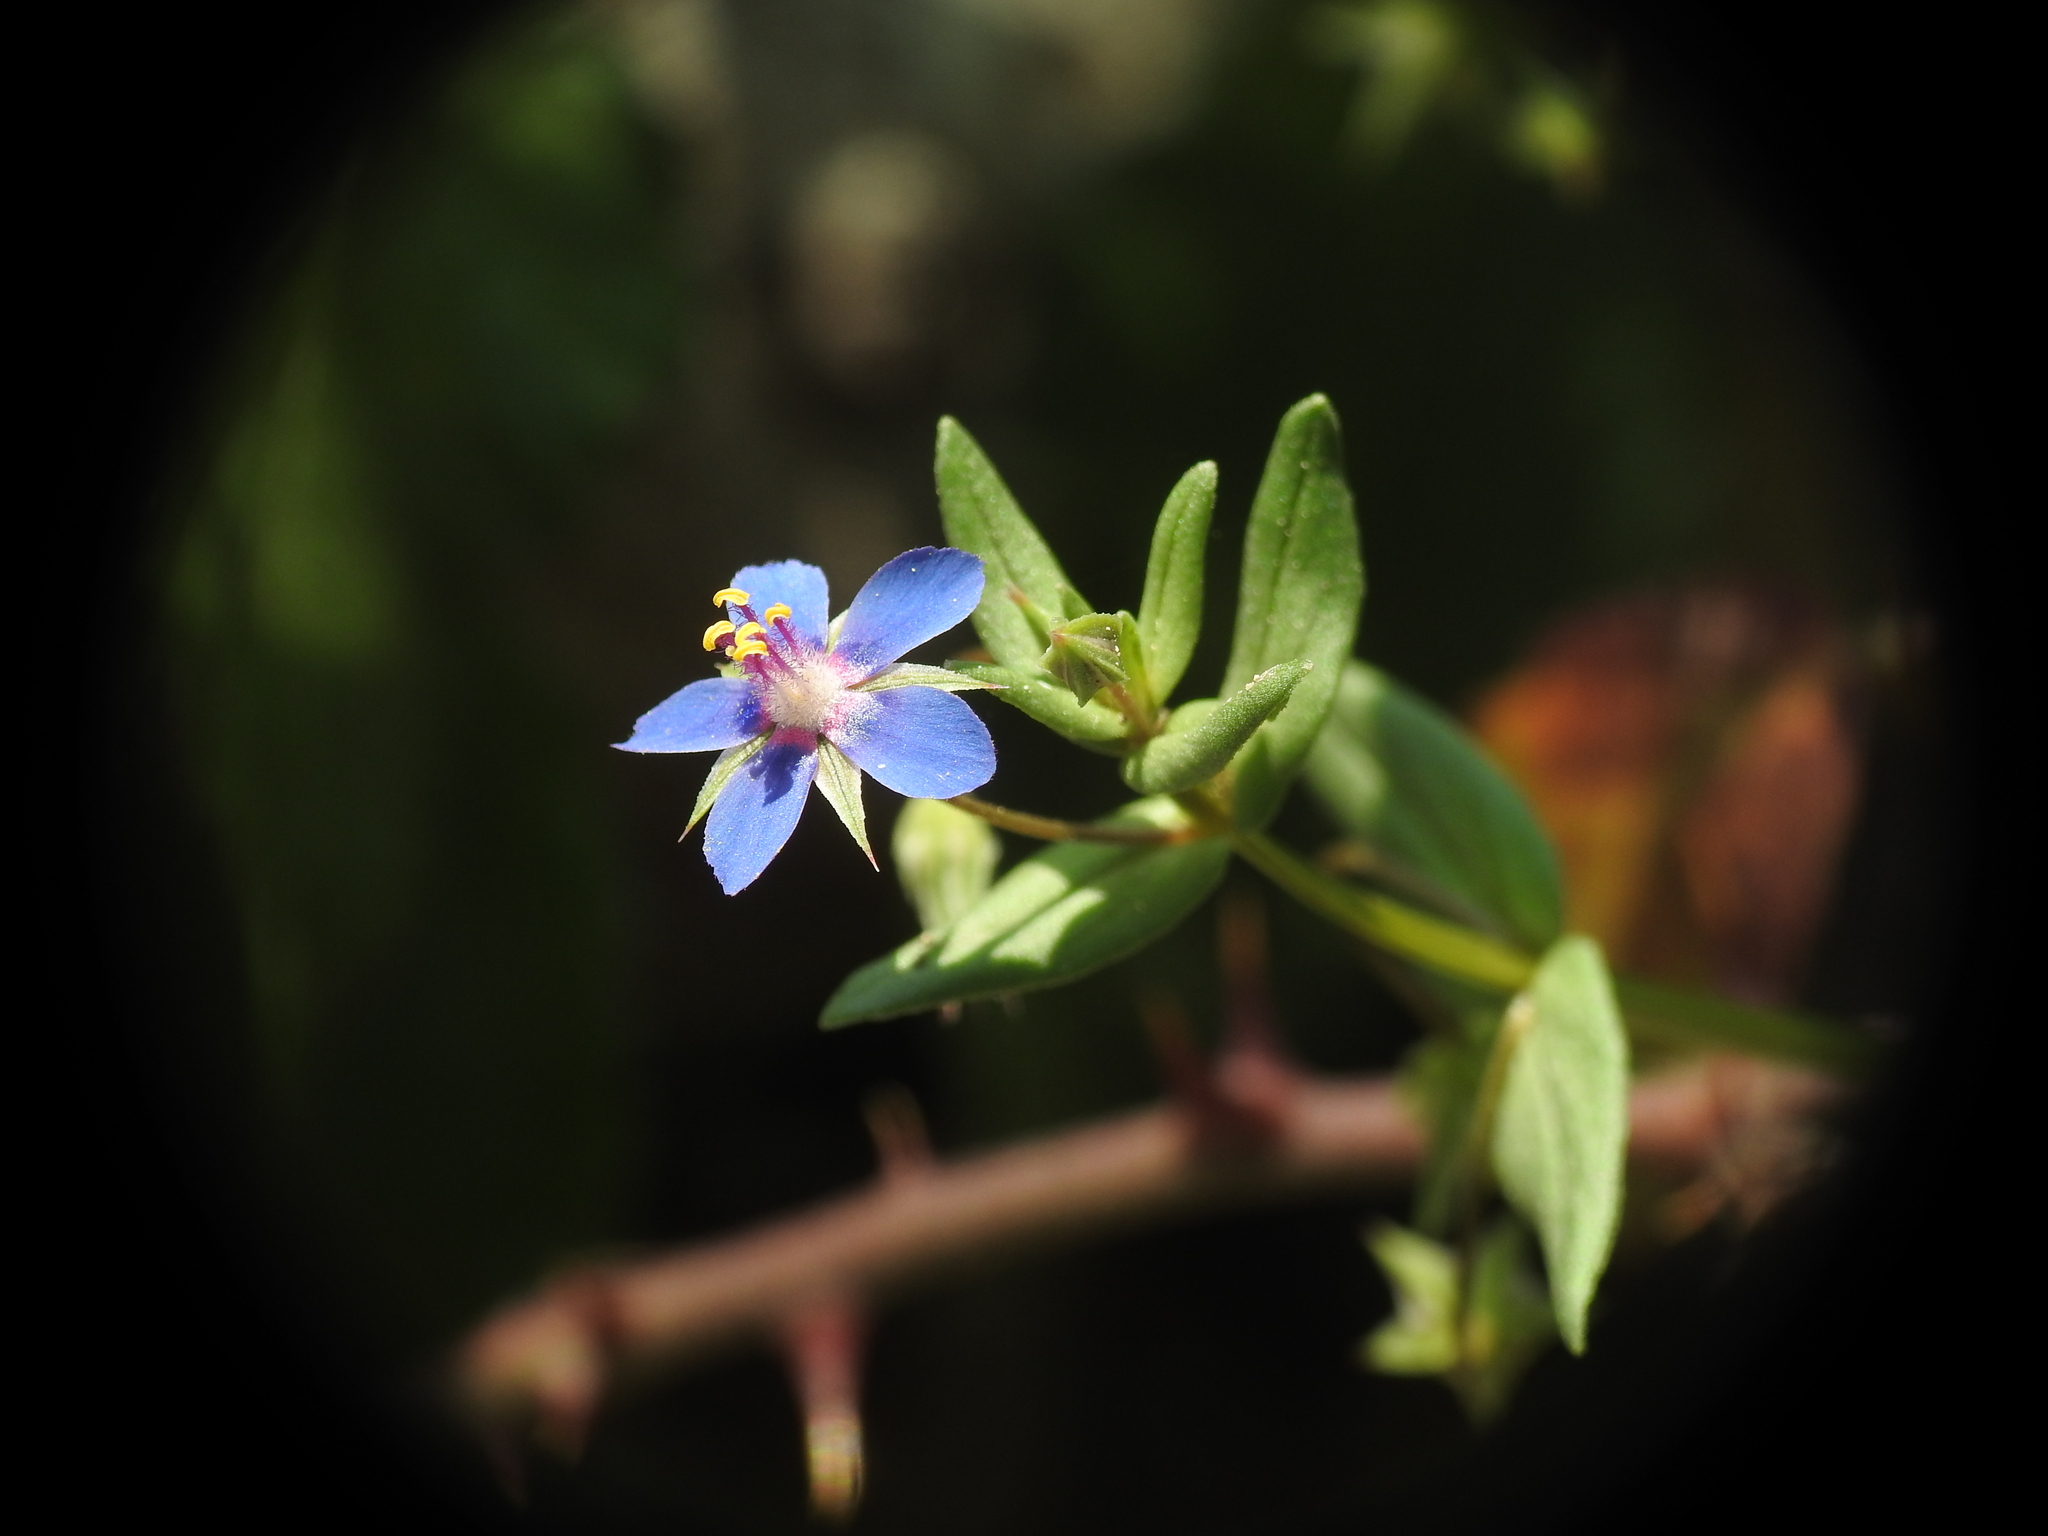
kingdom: Plantae
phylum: Tracheophyta
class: Magnoliopsida
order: Ericales
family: Primulaceae
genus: Lysimachia
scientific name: Lysimachia foemina
